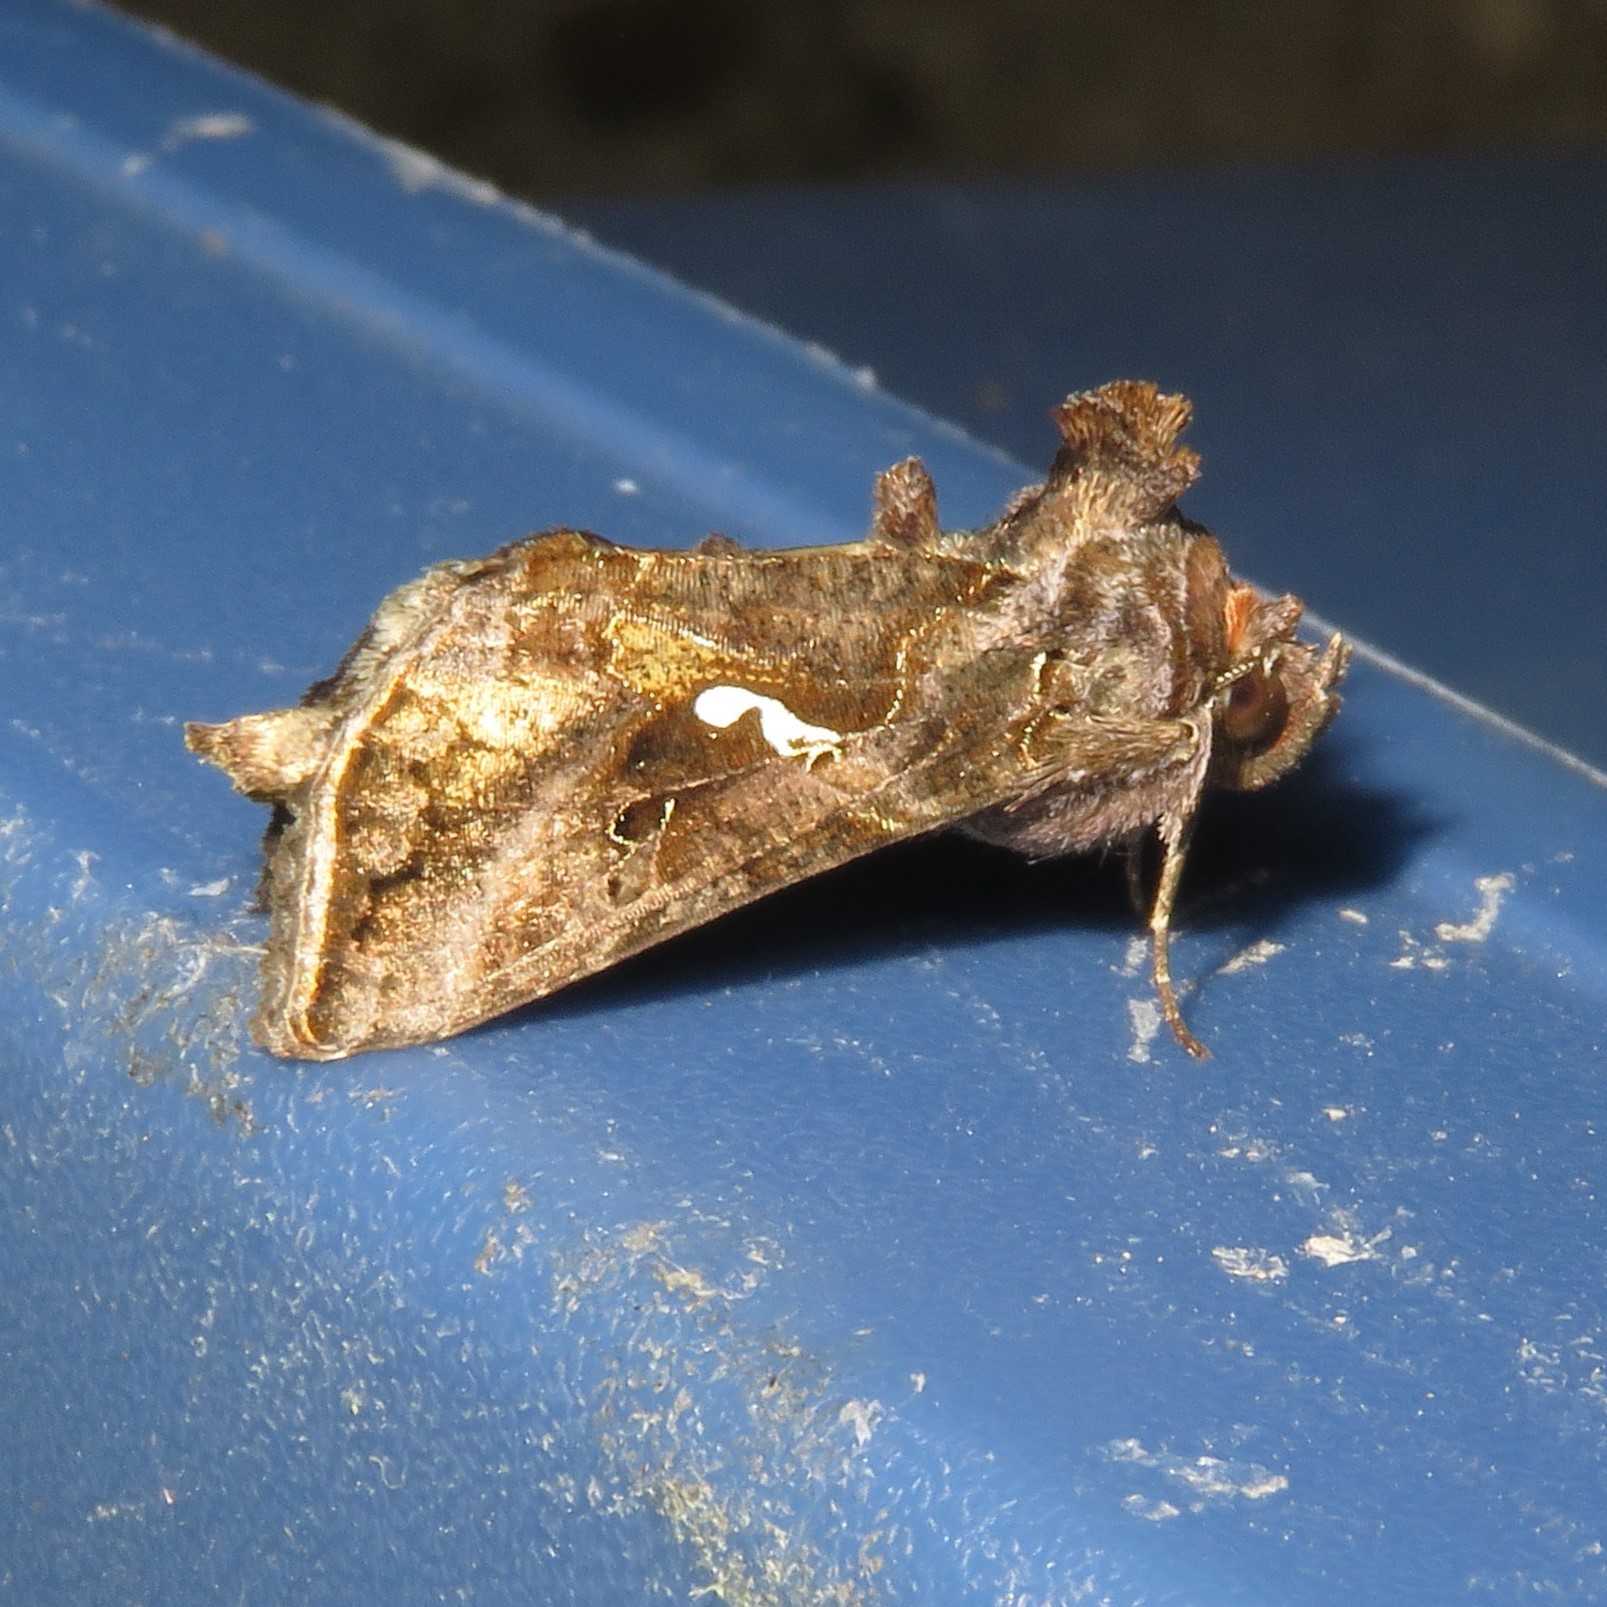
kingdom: Animalia
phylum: Arthropoda
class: Insecta
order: Lepidoptera
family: Noctuidae
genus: Autographa
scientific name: Autographa precationis
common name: Common looper moth
